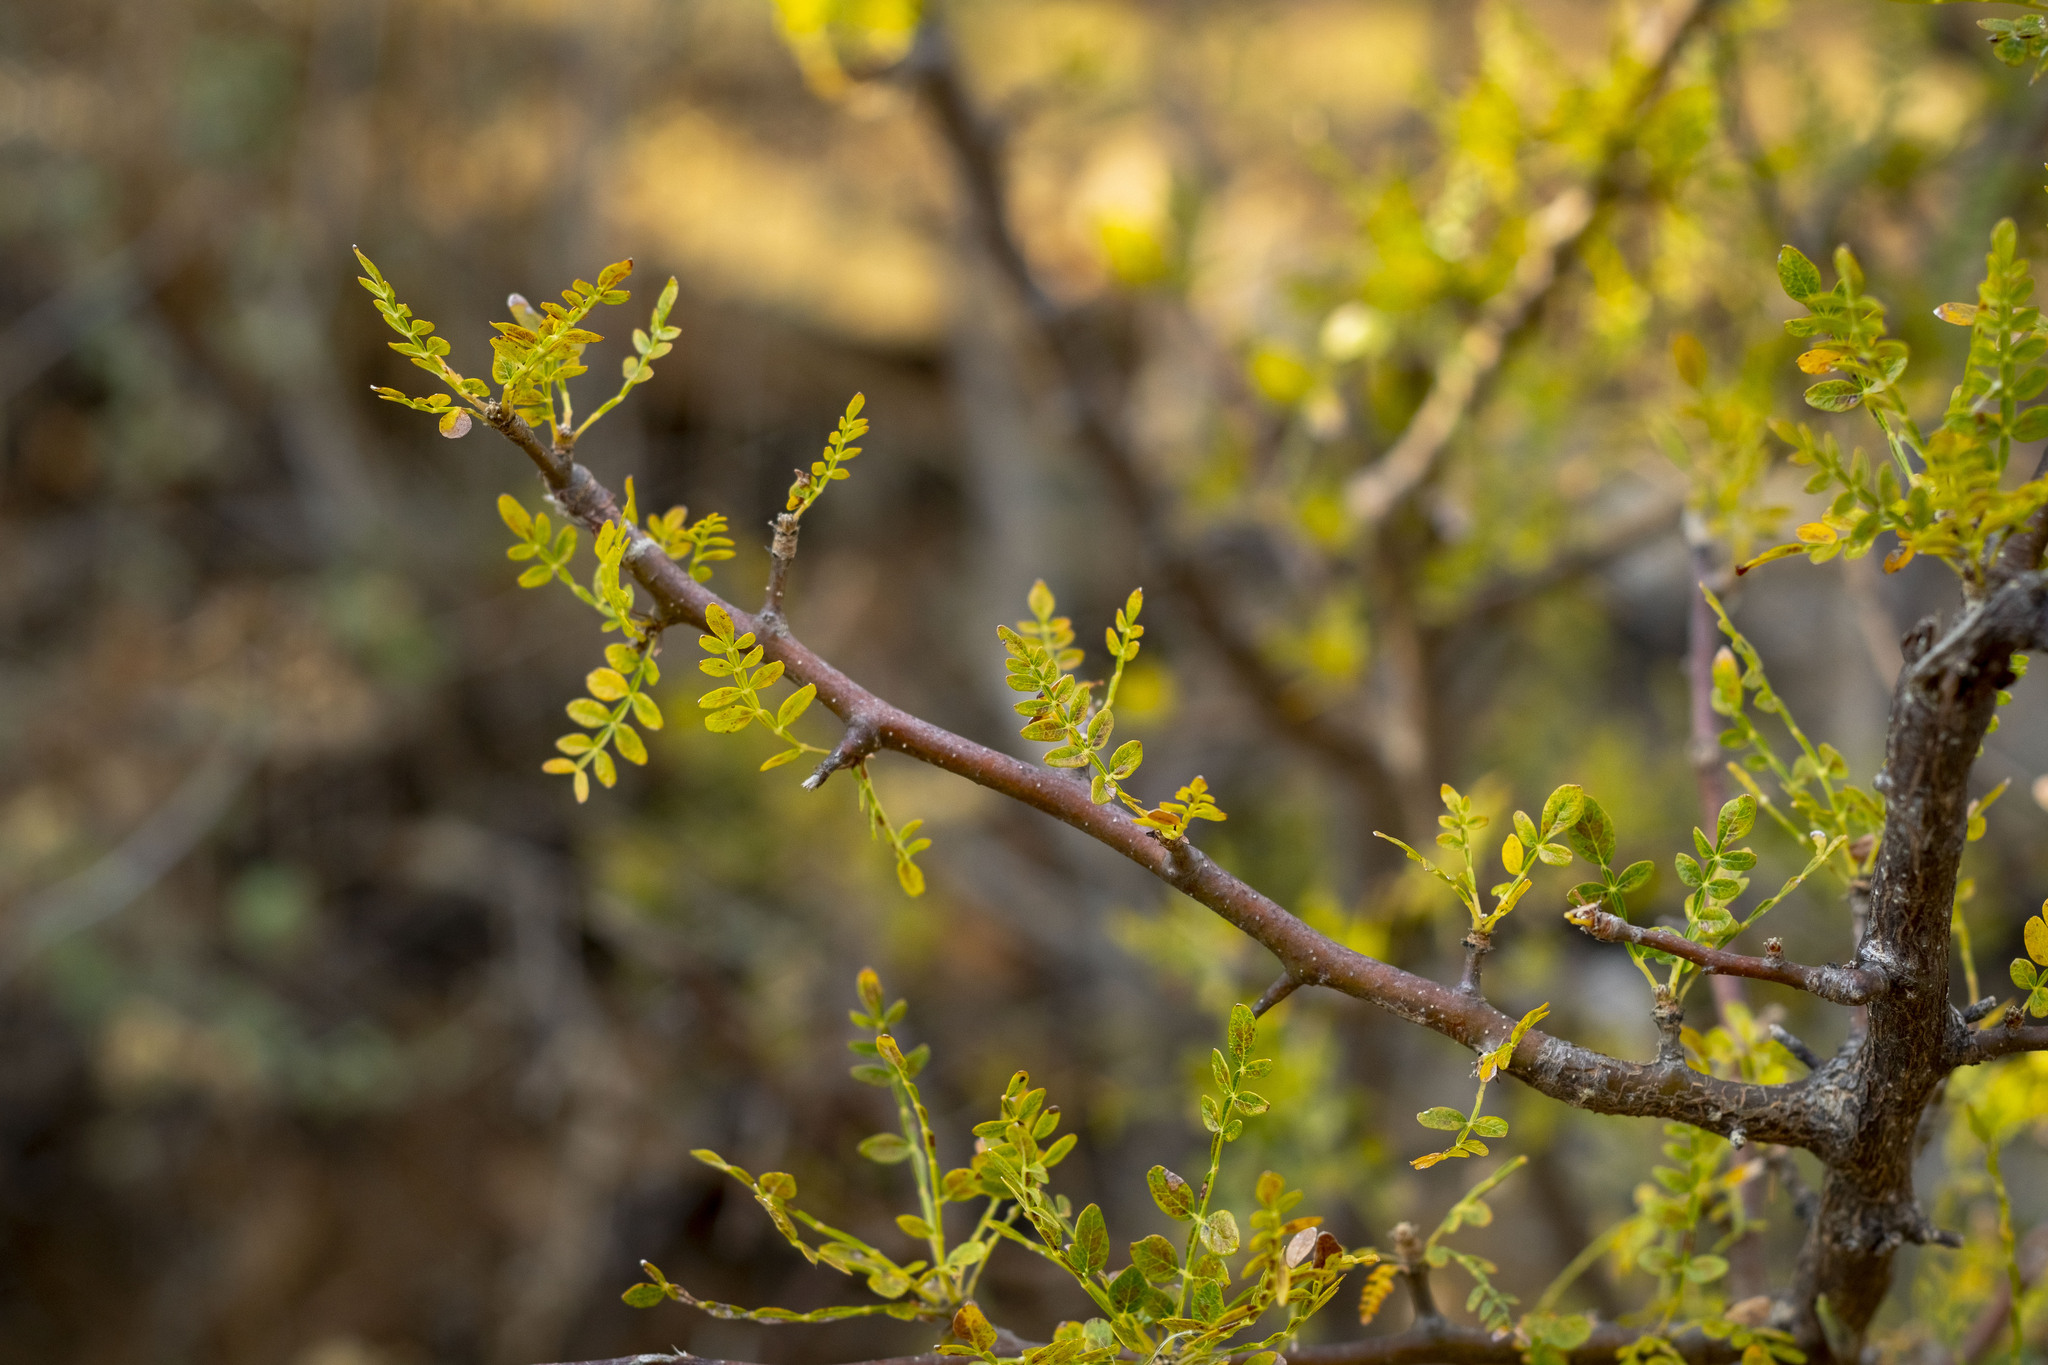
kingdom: Plantae
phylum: Tracheophyta
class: Magnoliopsida
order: Sapindales
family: Burseraceae
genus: Bursera
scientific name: Bursera bipinnata
